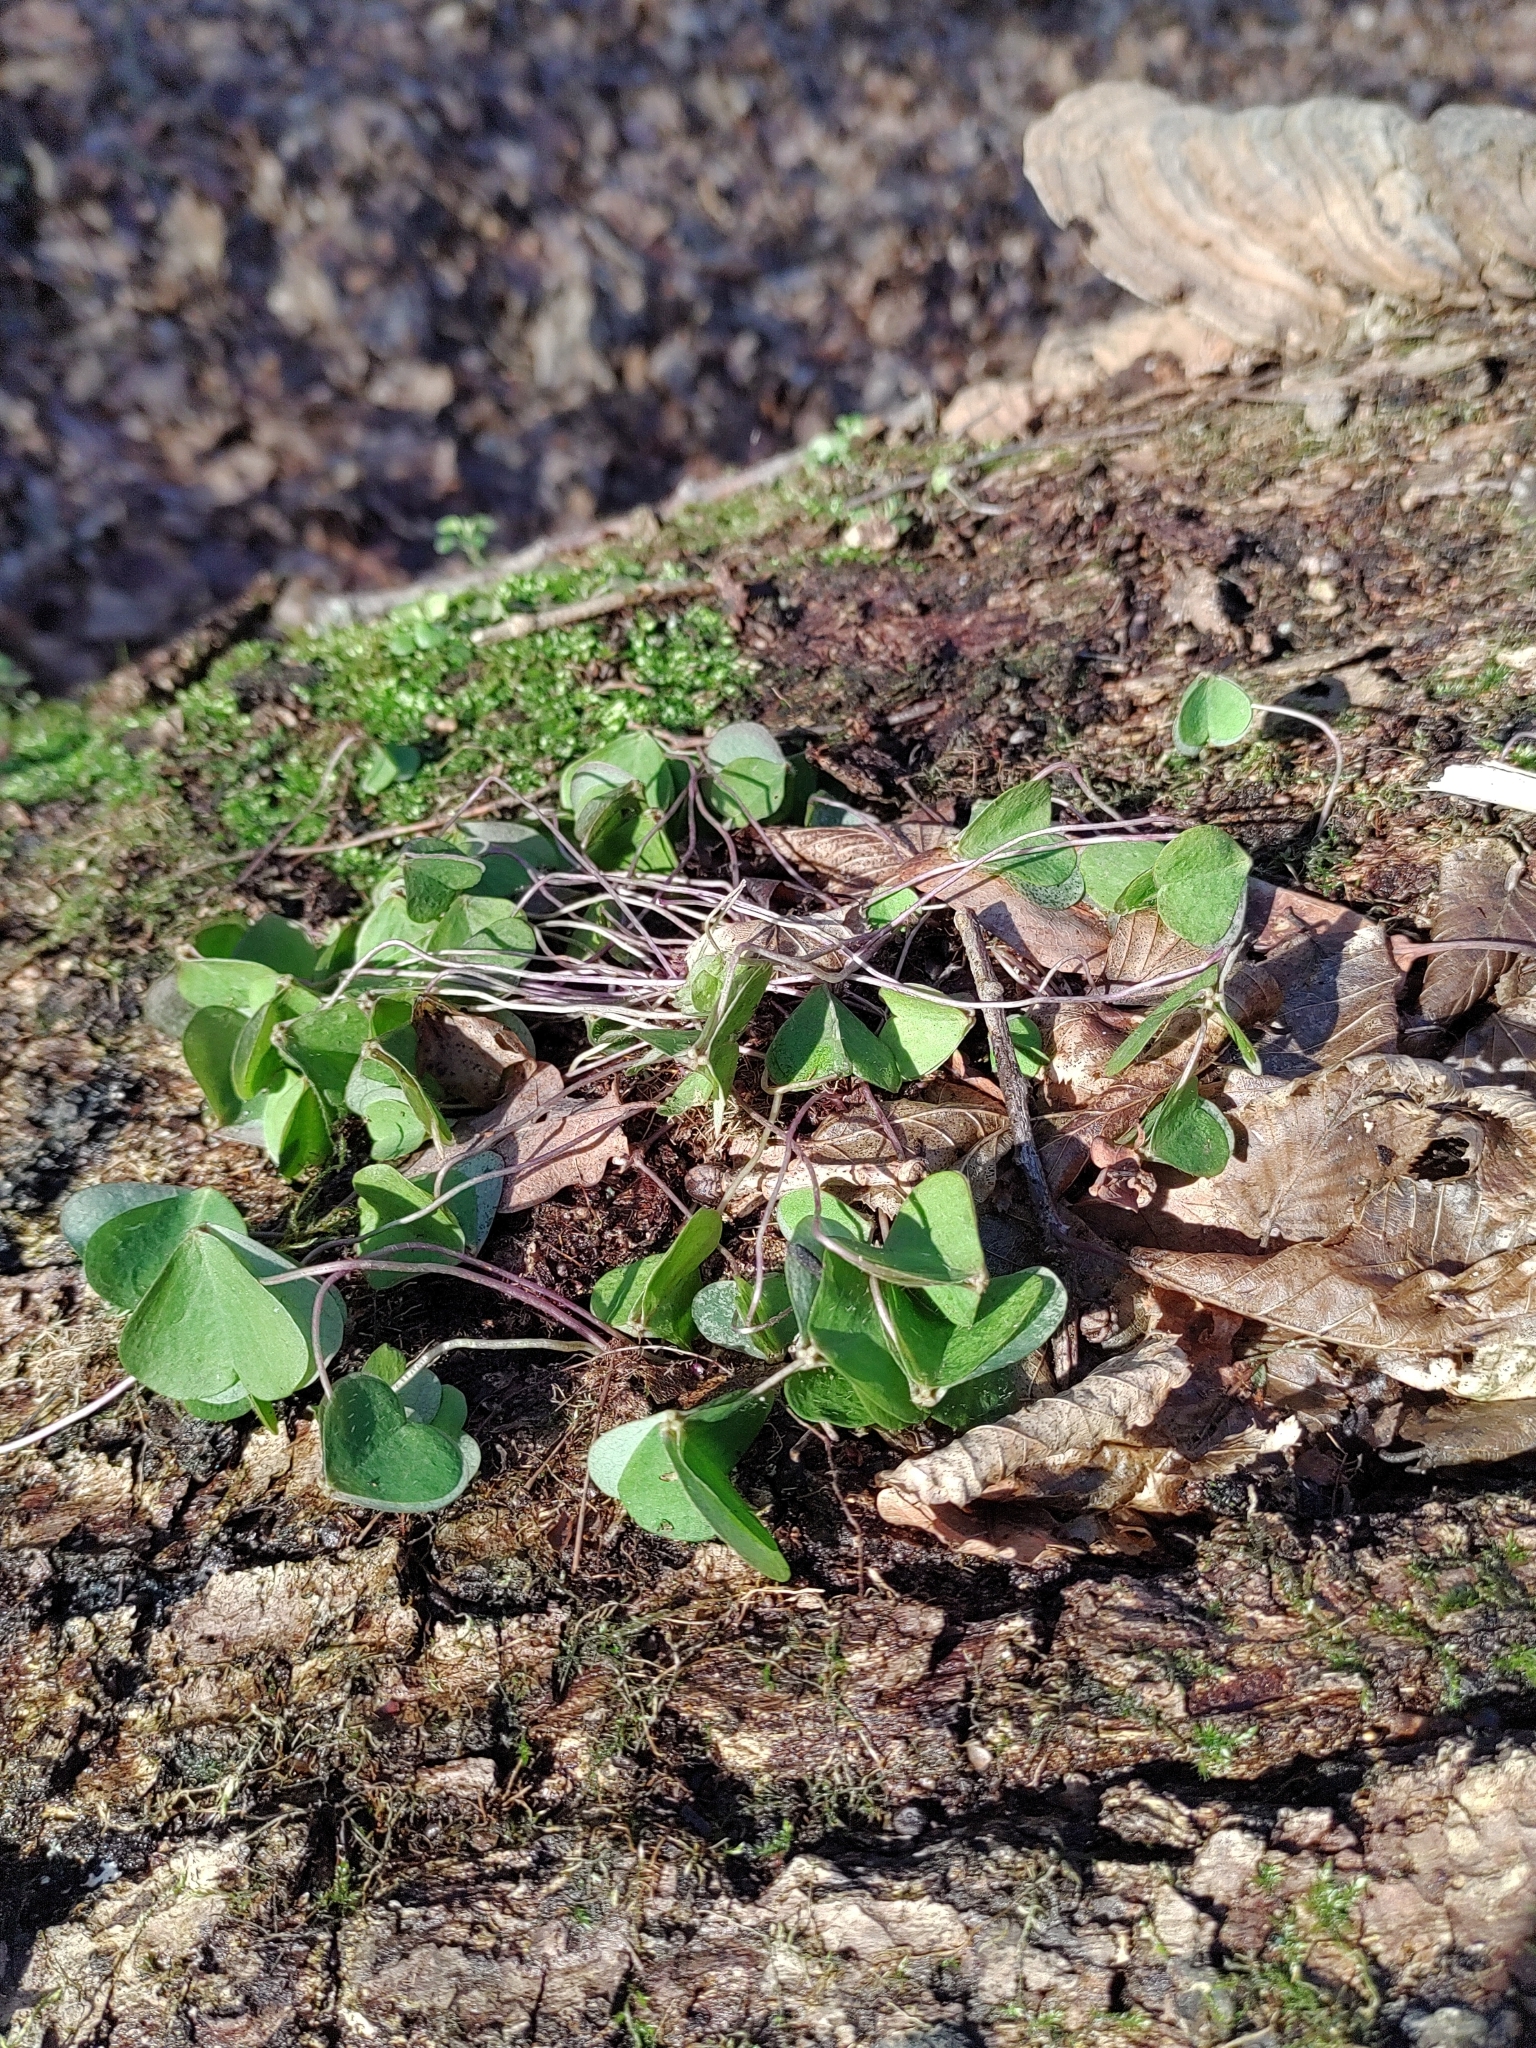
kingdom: Plantae
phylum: Tracheophyta
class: Magnoliopsida
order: Oxalidales
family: Oxalidaceae
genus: Oxalis
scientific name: Oxalis acetosella
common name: Wood-sorrel
